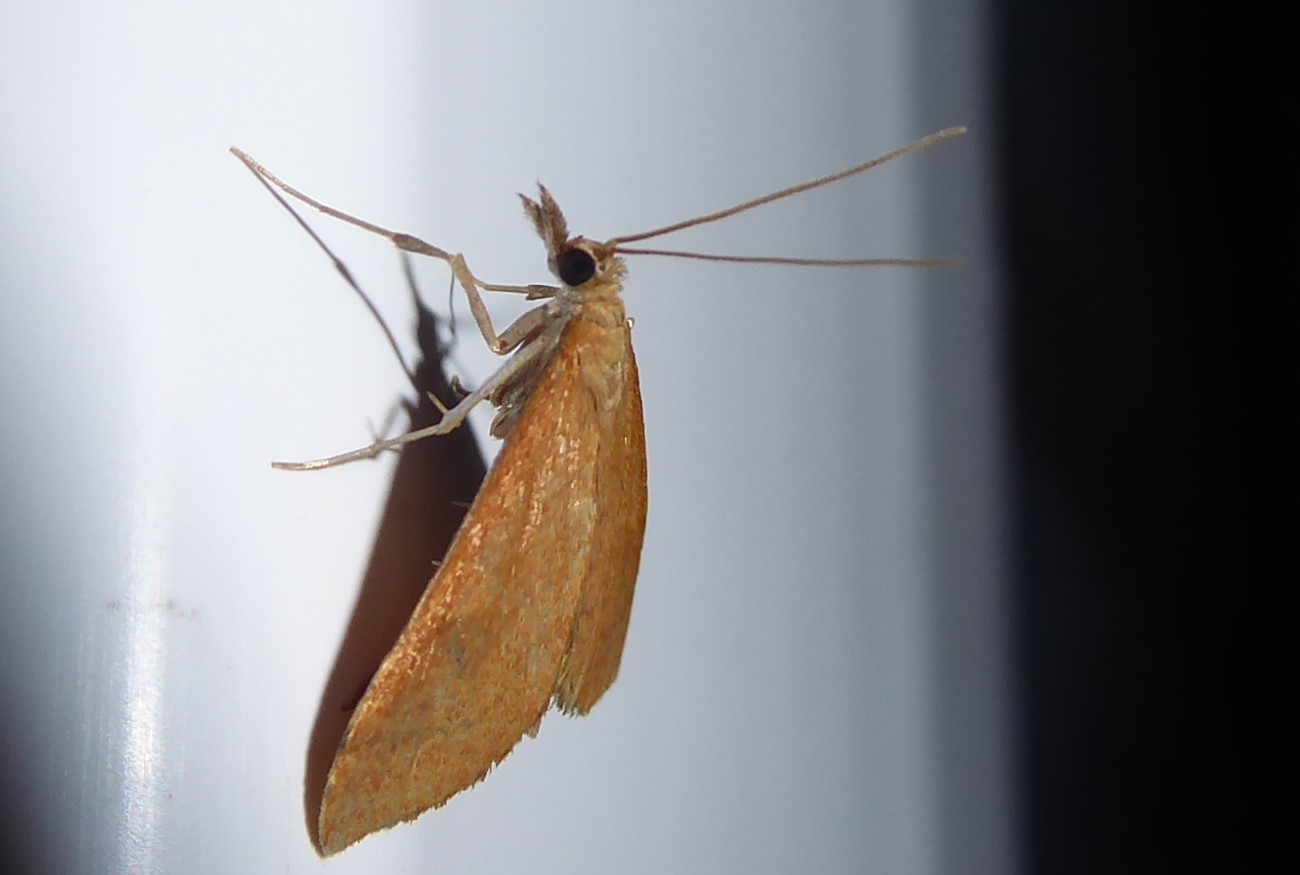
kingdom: Animalia
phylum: Arthropoda
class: Insecta
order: Lepidoptera
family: Crambidae
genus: Udea
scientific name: Udea Mnesictena flavidalis
